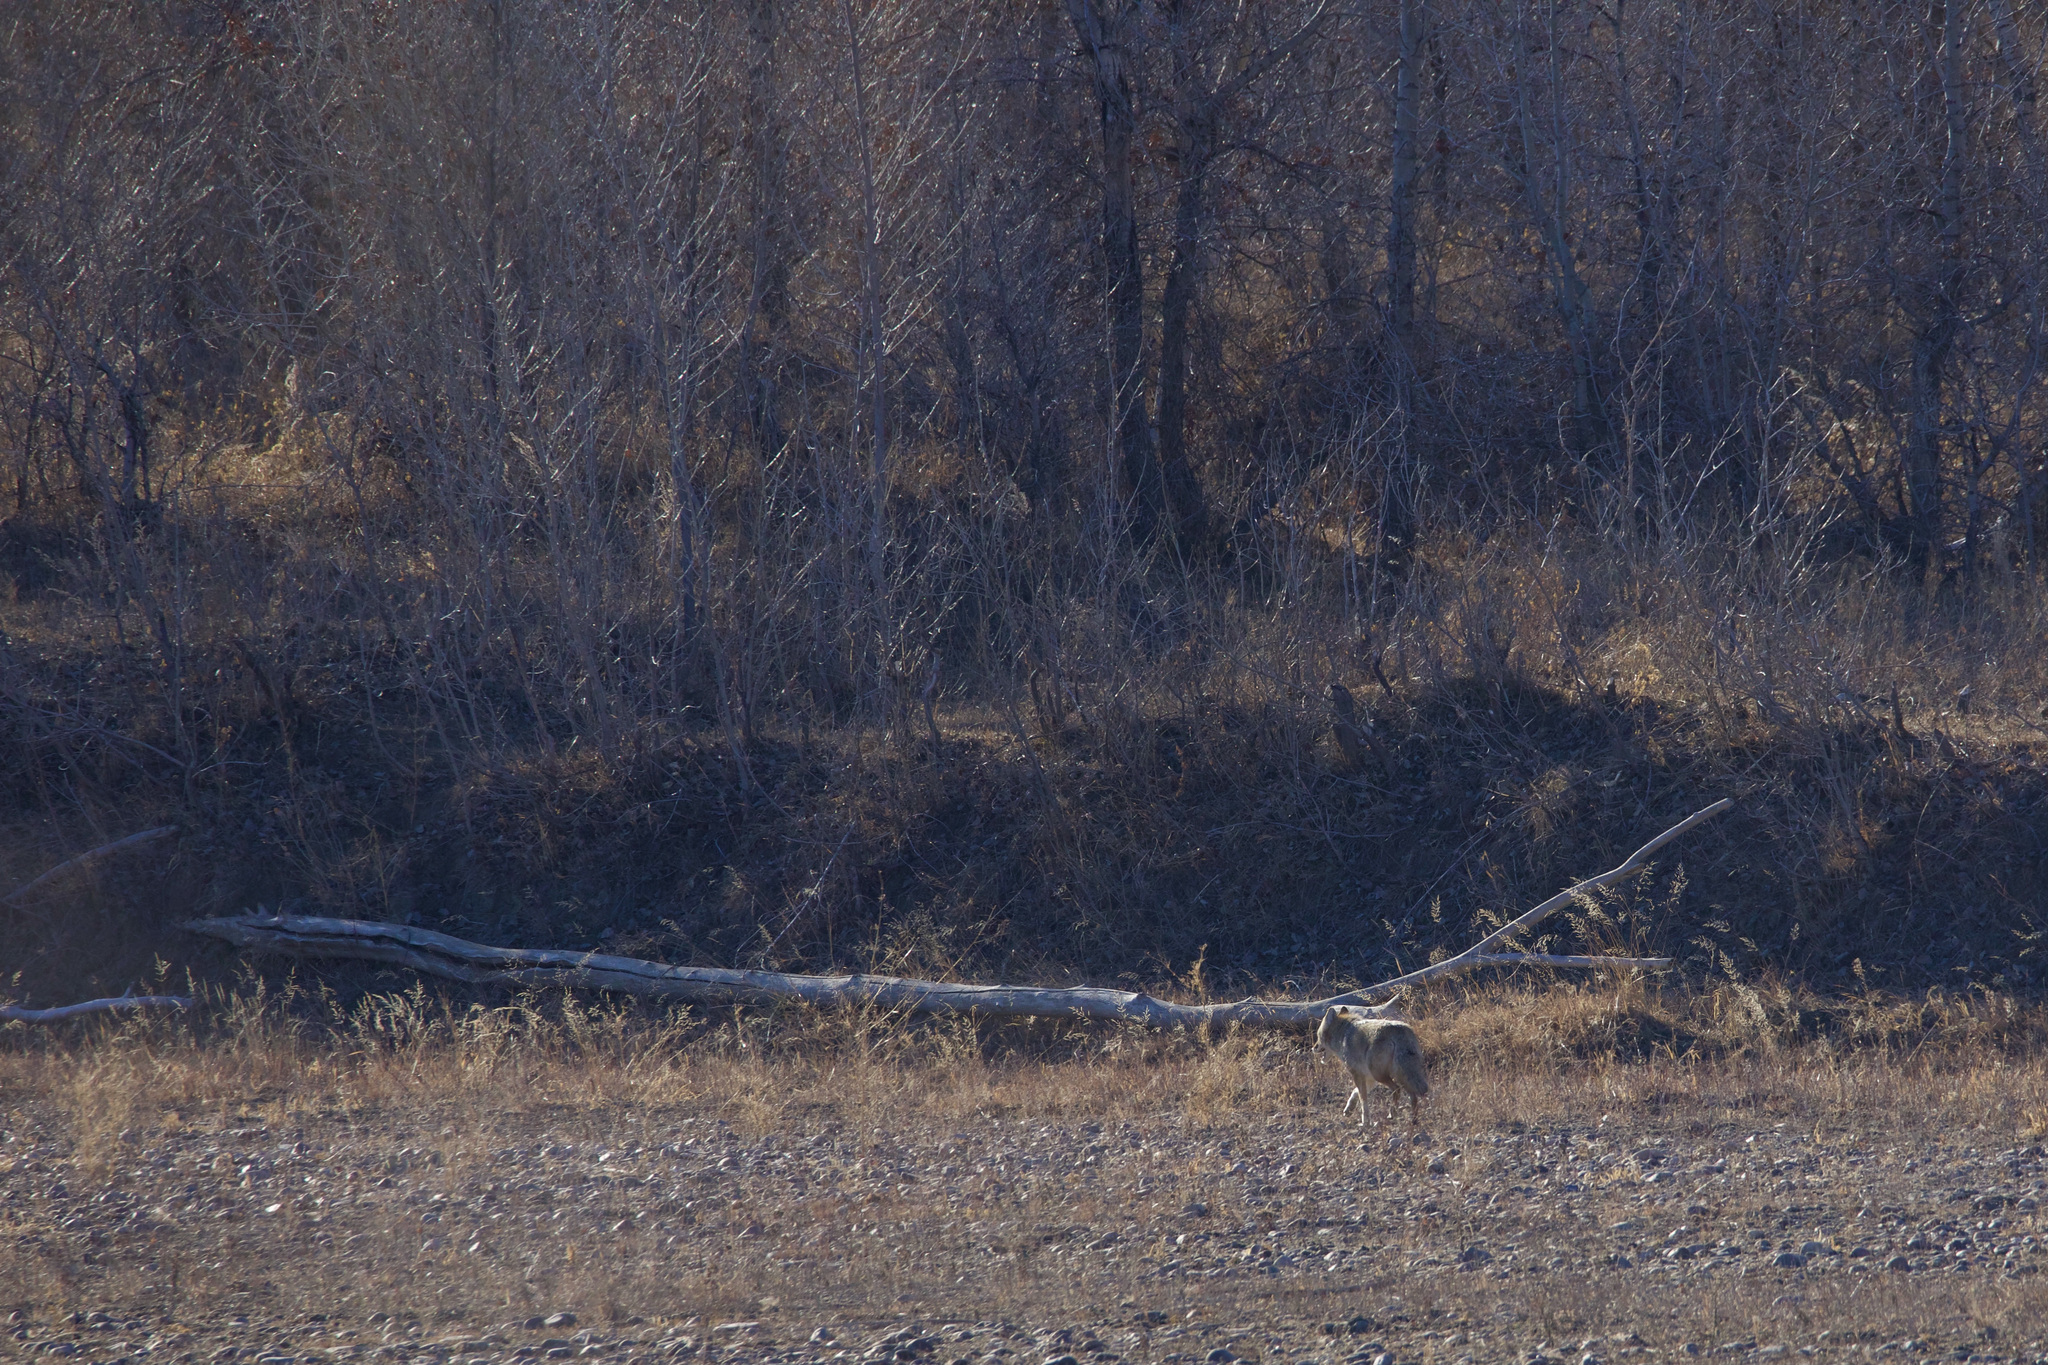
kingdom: Animalia
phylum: Chordata
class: Mammalia
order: Carnivora
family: Canidae
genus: Canis
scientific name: Canis latrans
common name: Coyote
